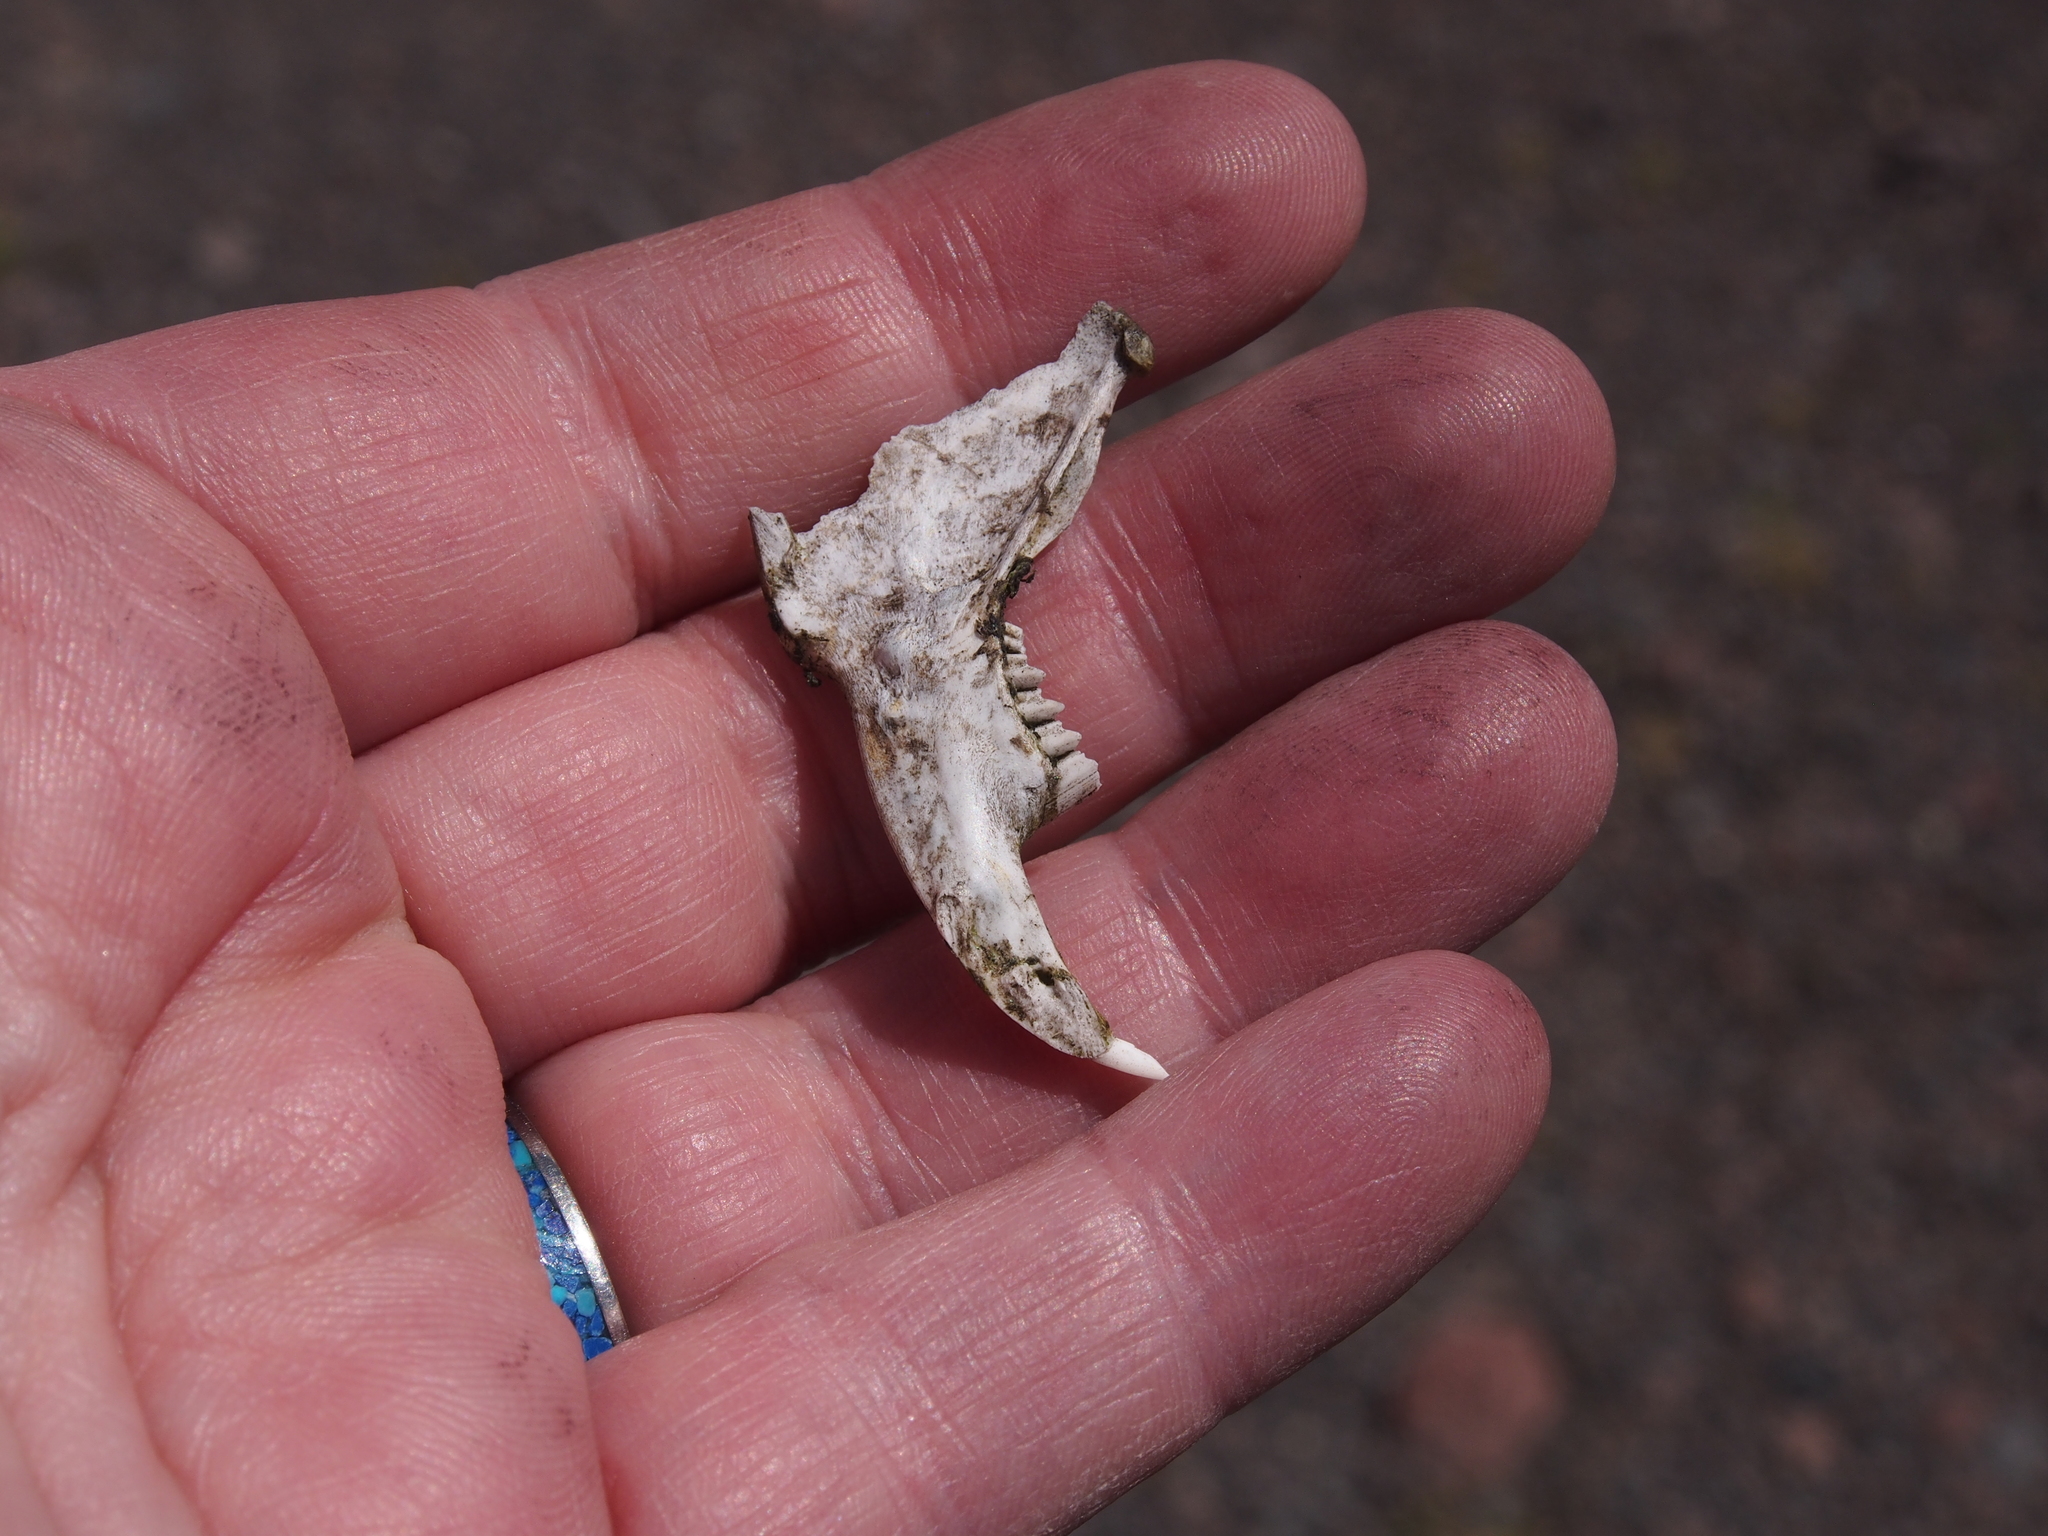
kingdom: Animalia
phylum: Chordata
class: Mammalia
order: Lagomorpha
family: Leporidae
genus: Sylvilagus
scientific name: Sylvilagus andinus
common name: Andean cottontail
